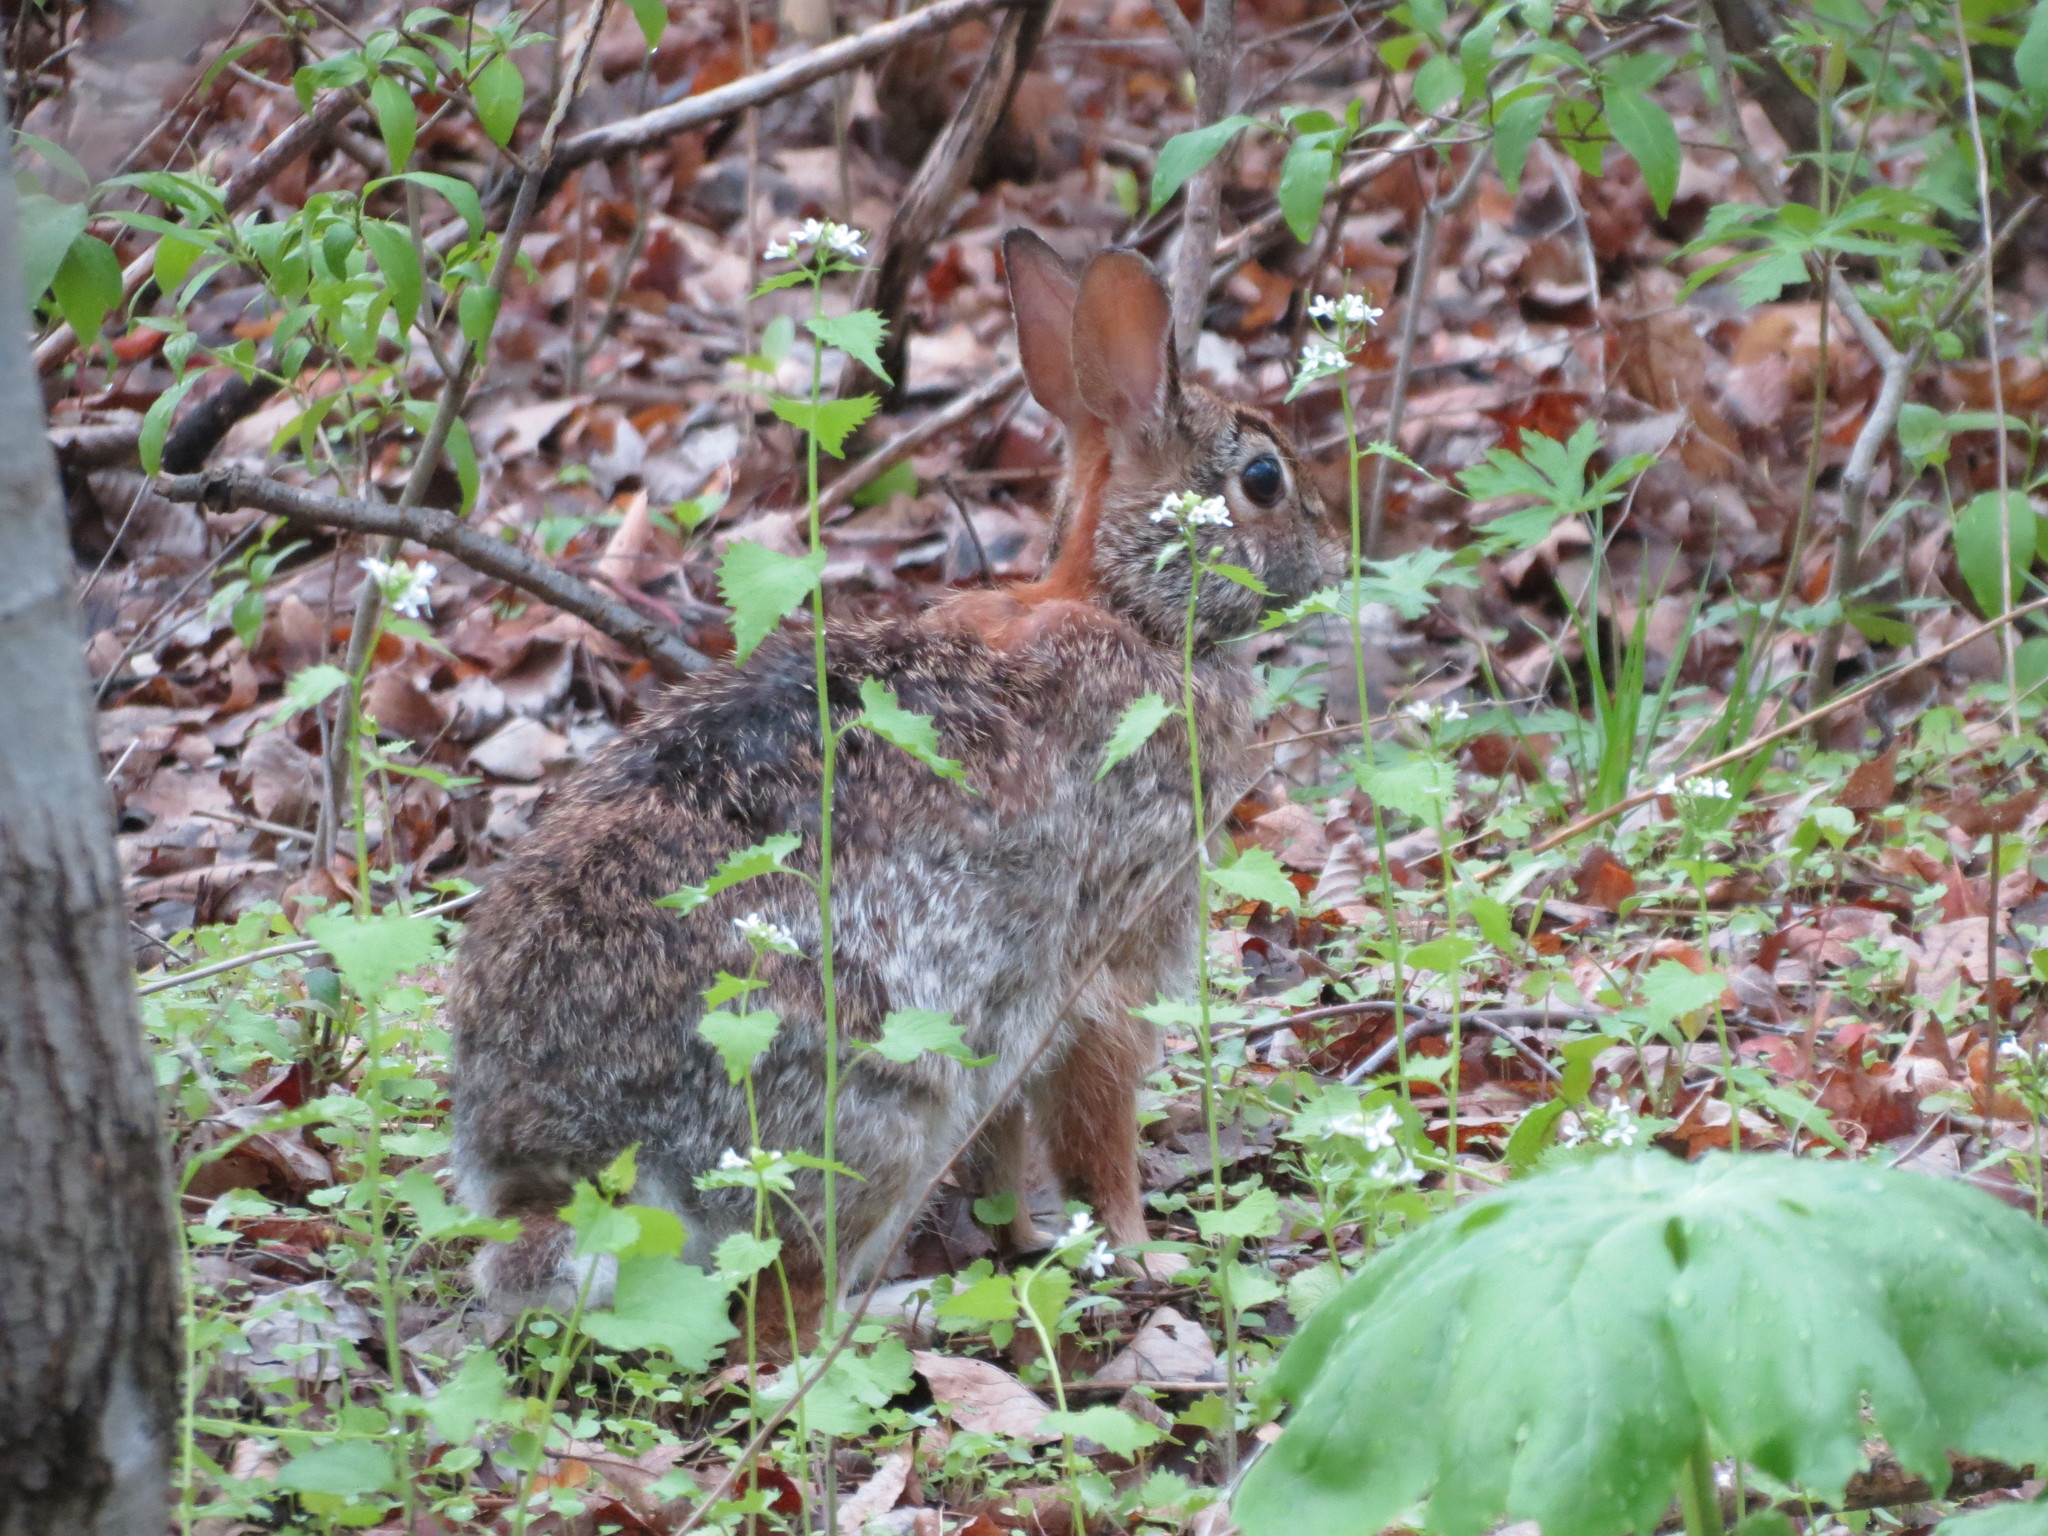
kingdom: Animalia
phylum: Chordata
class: Mammalia
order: Lagomorpha
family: Leporidae
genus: Sylvilagus
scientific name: Sylvilagus floridanus
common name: Eastern cottontail
